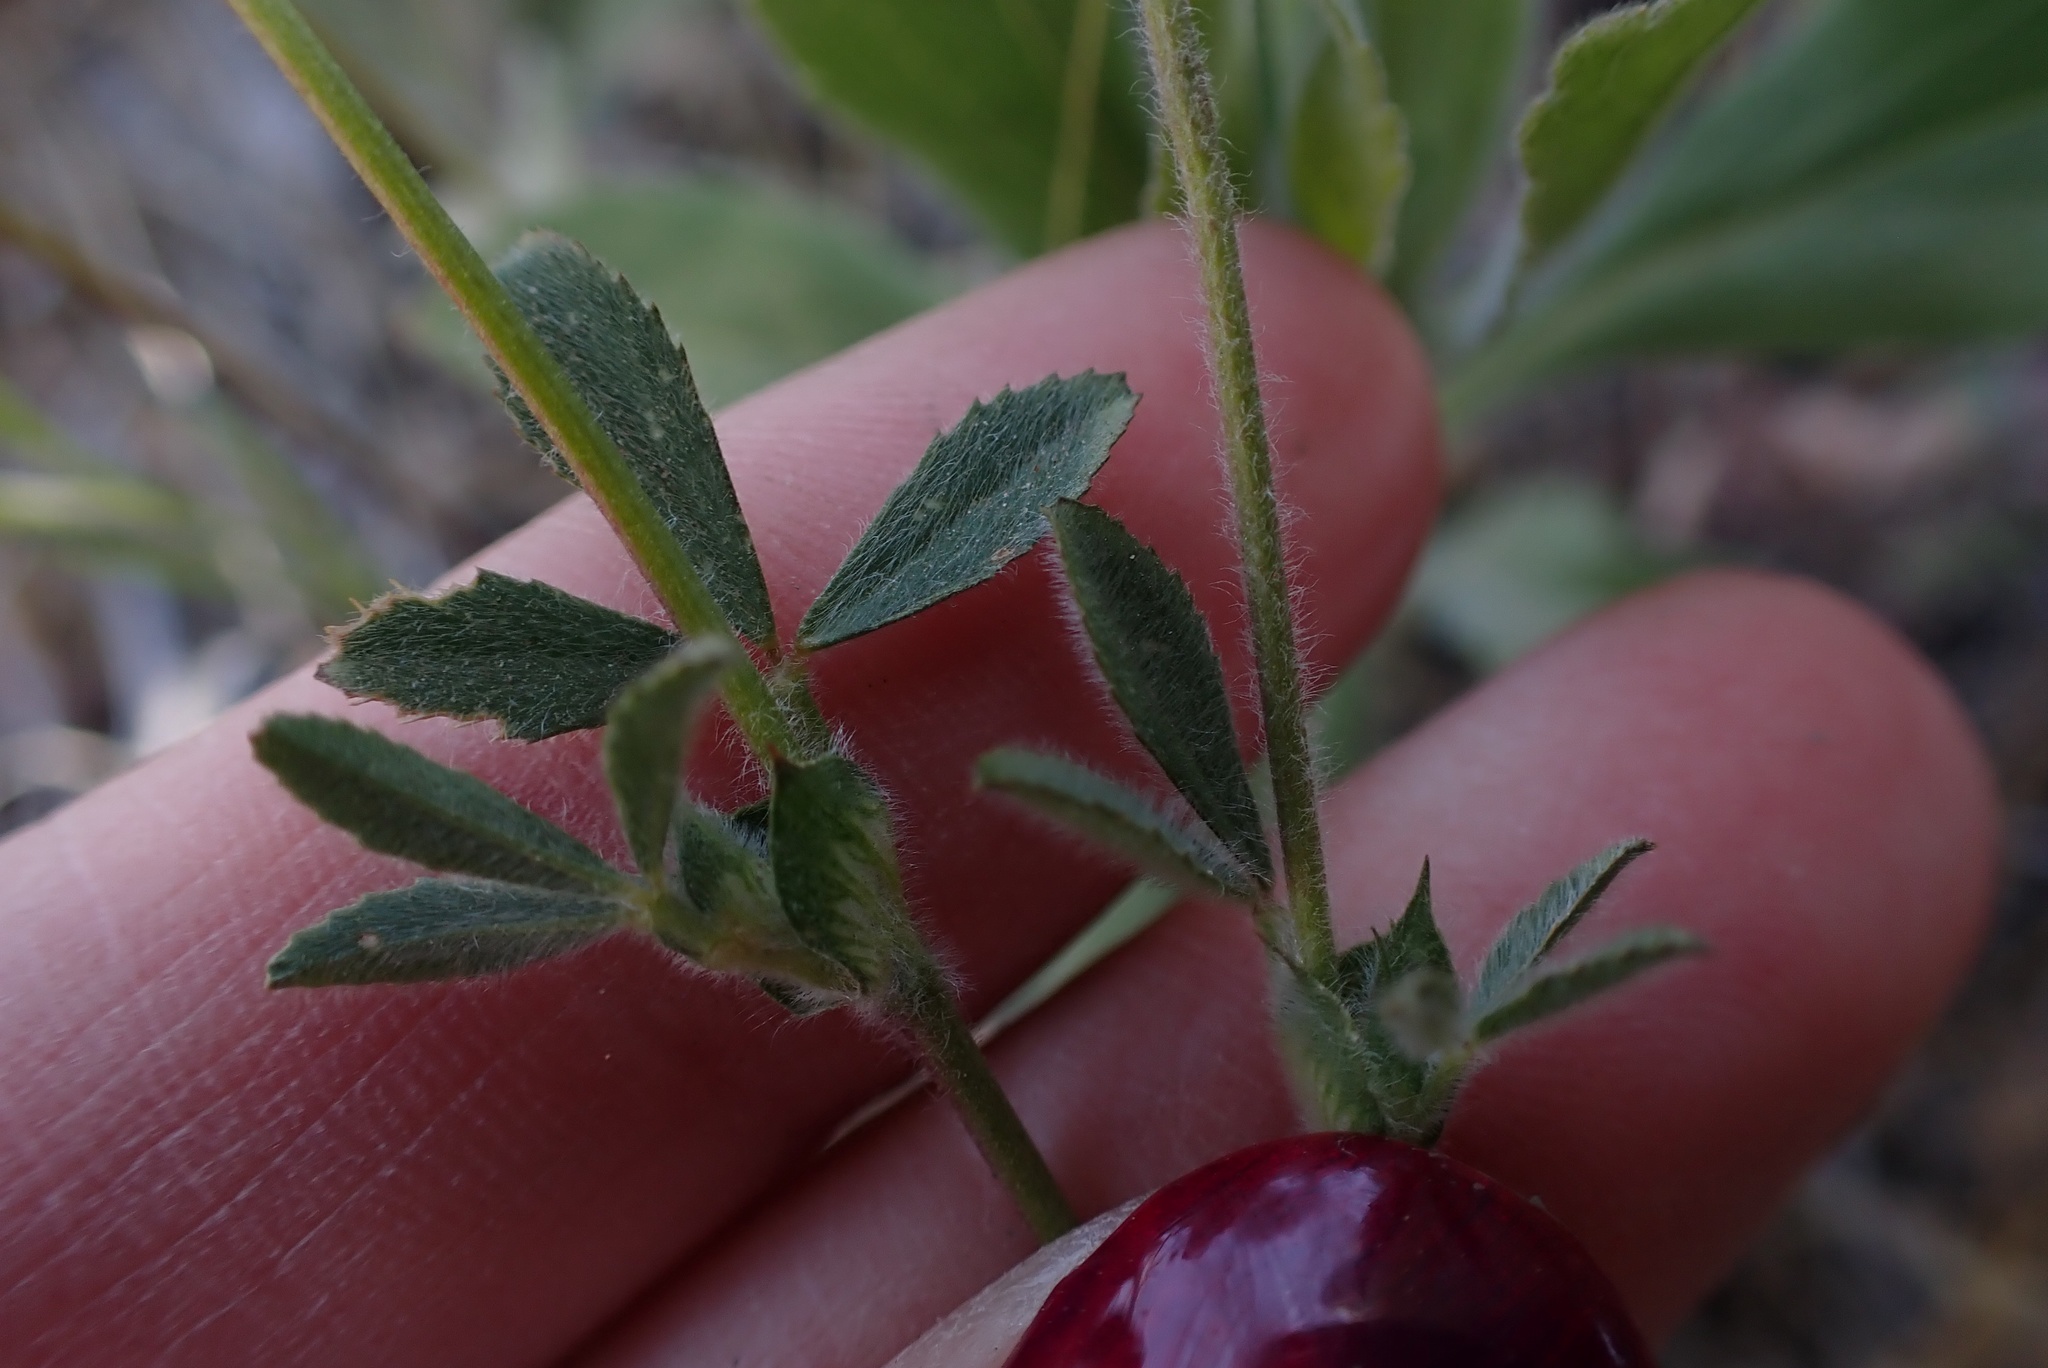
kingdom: Plantae
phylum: Tracheophyta
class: Magnoliopsida
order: Fabales
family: Fabaceae
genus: Trifolium
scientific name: Trifolium albopurpureum
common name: Rancheria clover
